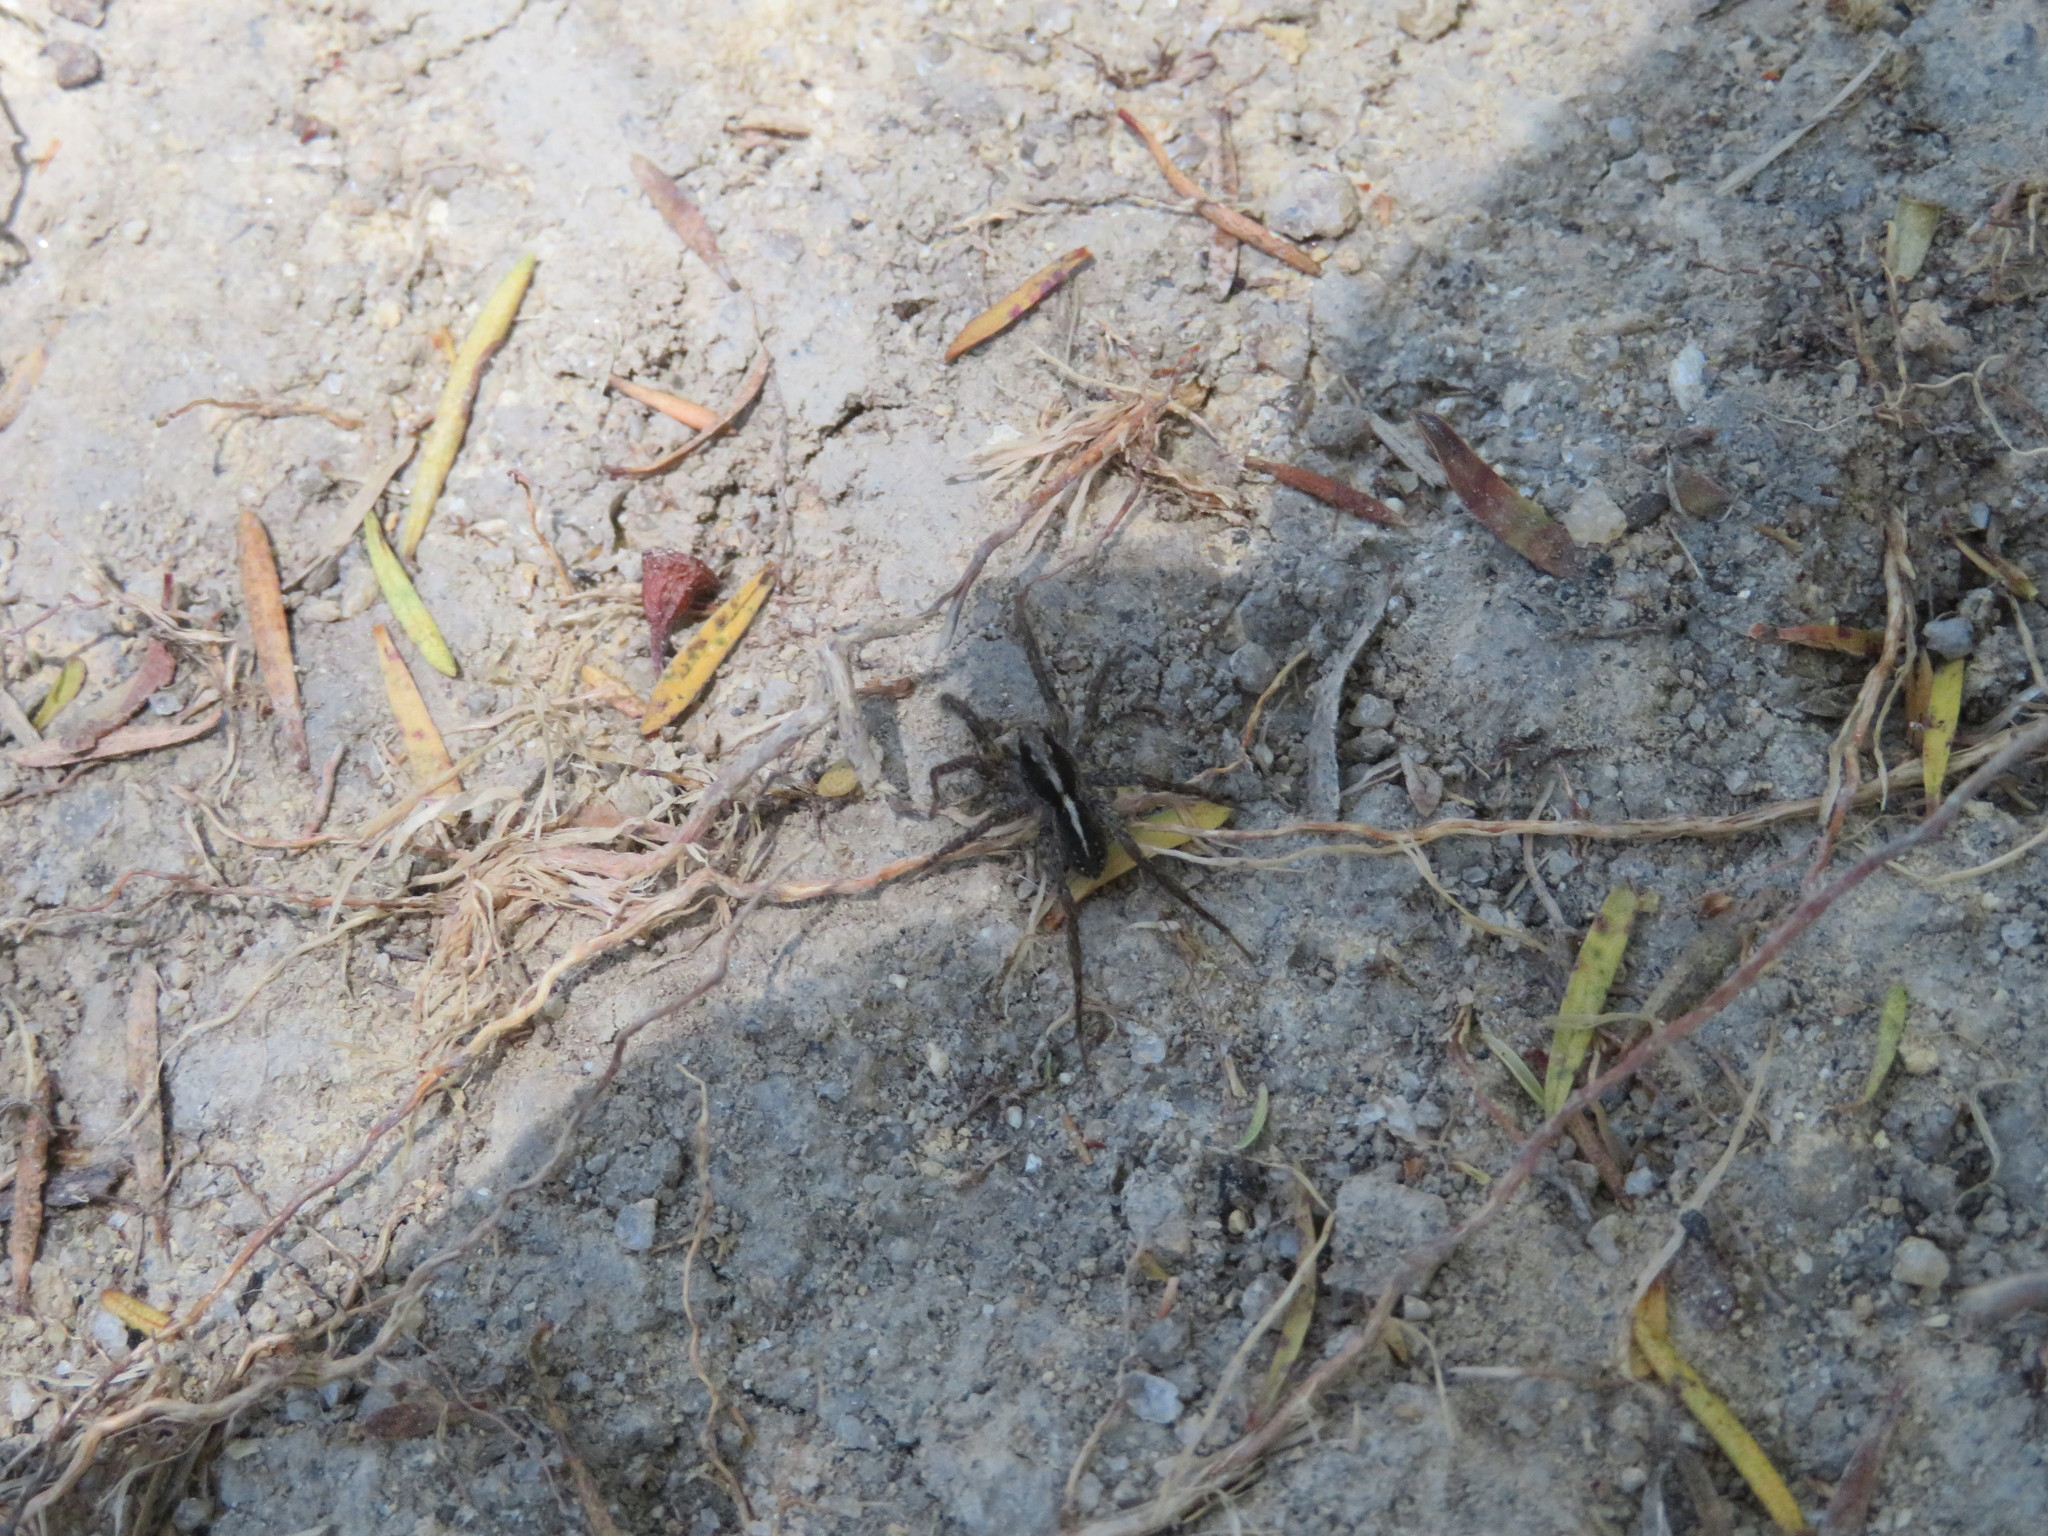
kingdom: Animalia
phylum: Arthropoda
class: Arachnida
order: Araneae
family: Lycosidae
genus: Anoteropsis
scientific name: Anoteropsis hilaris
